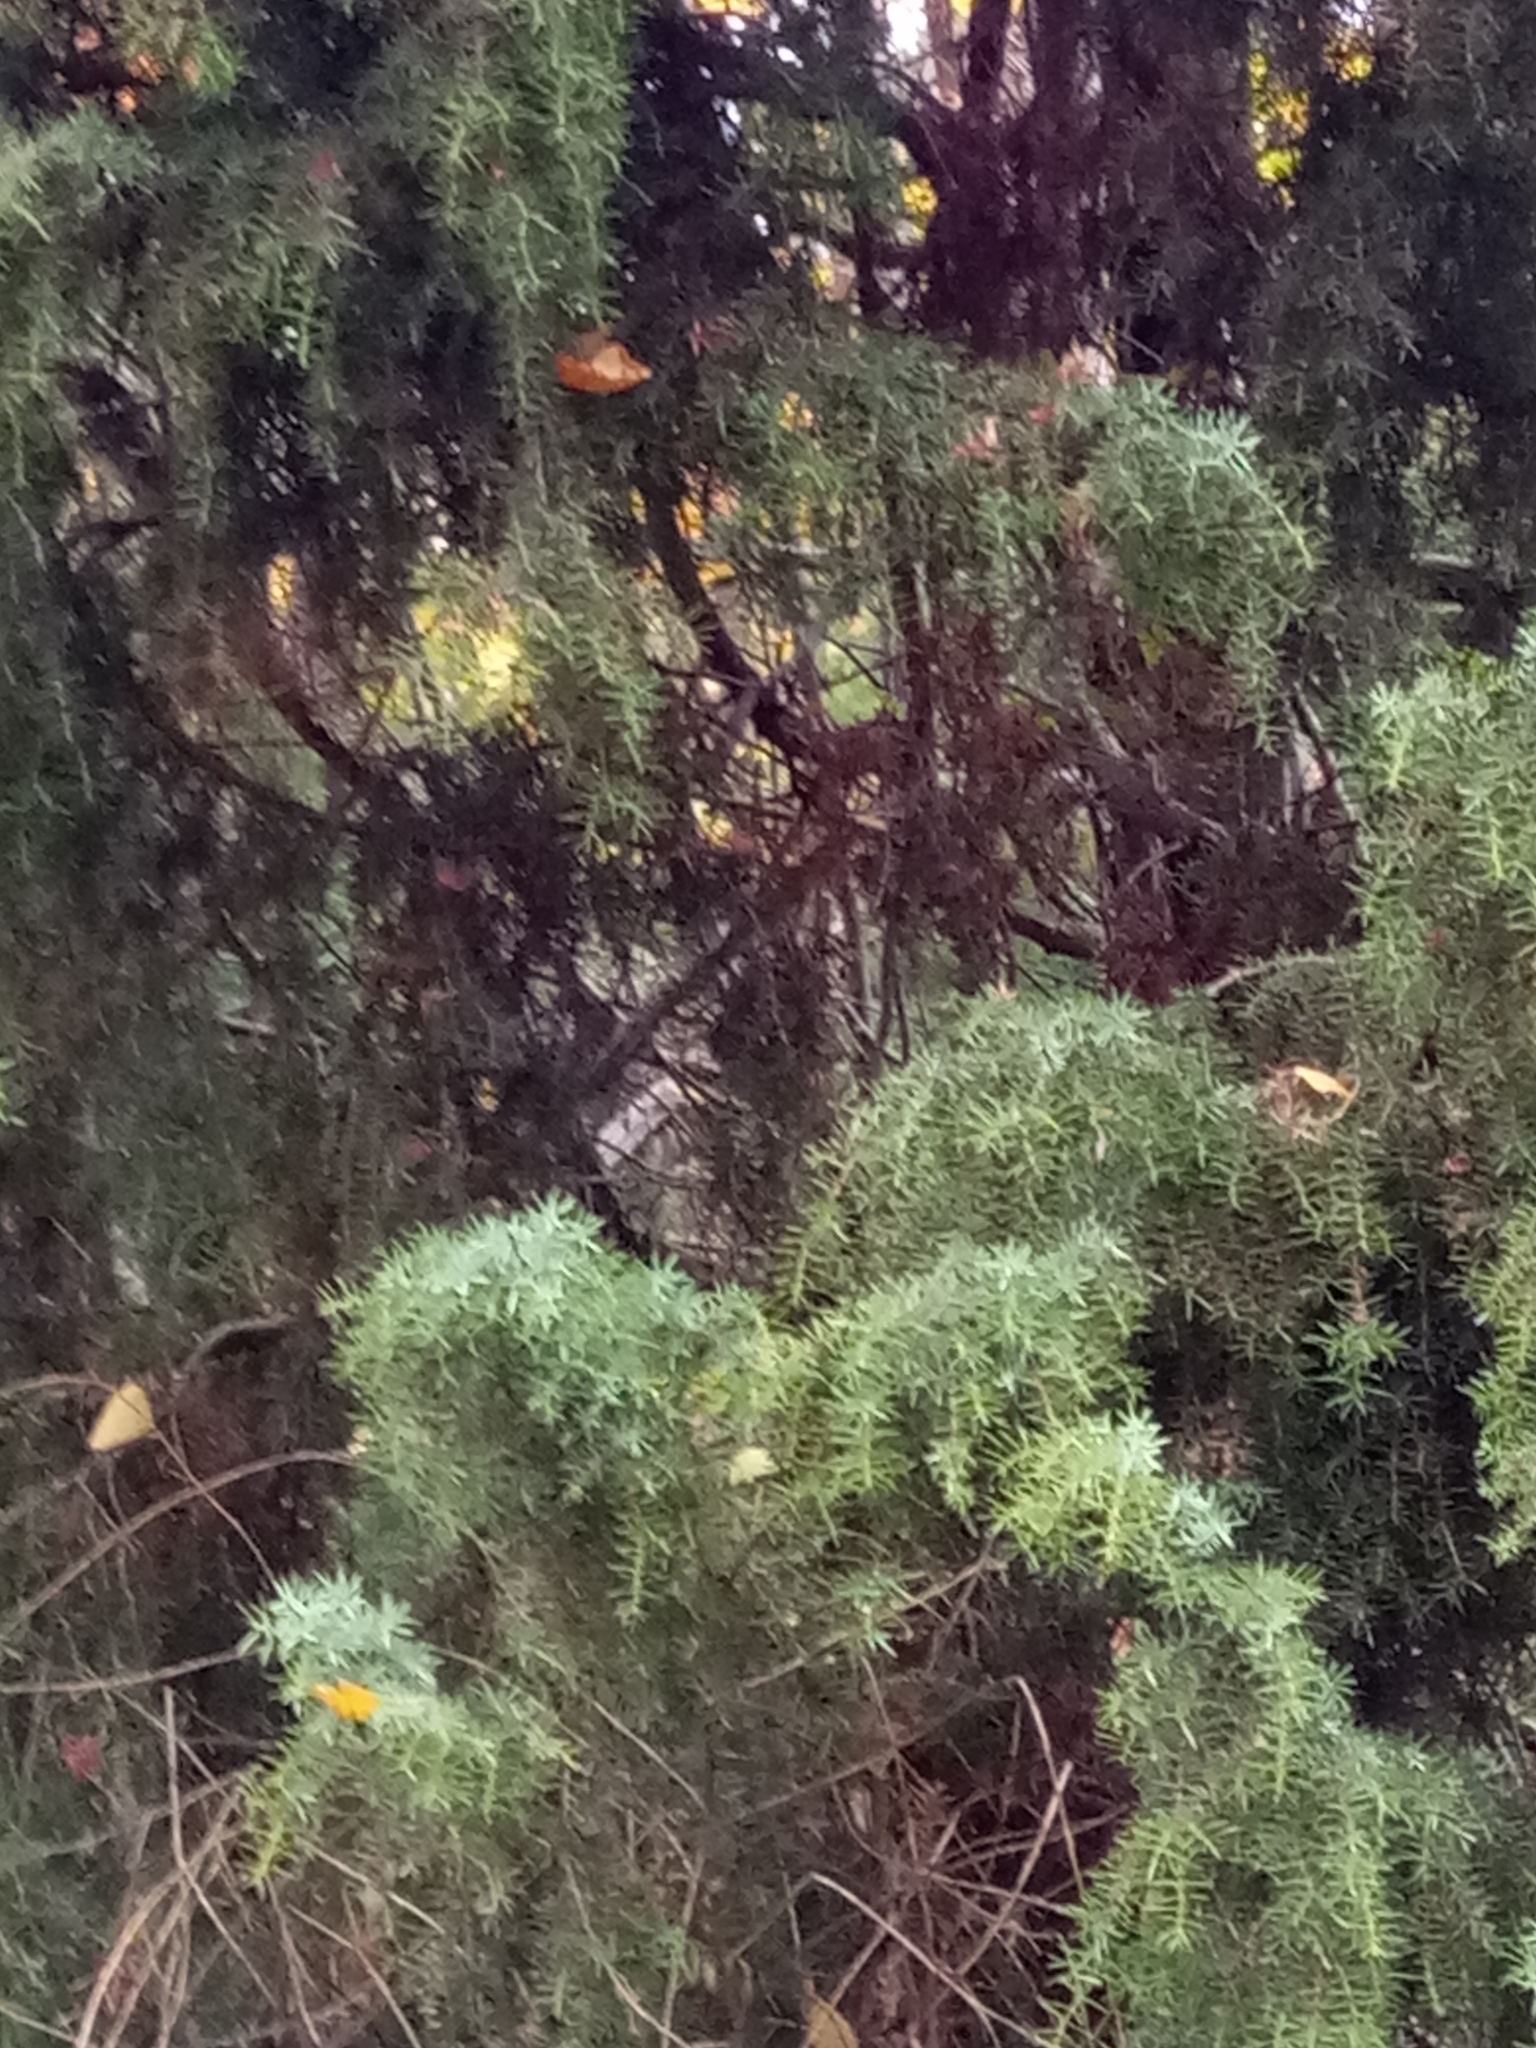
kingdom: Plantae
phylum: Tracheophyta
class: Pinopsida
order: Pinales
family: Cupressaceae
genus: Juniperus
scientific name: Juniperus communis
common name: Common juniper
